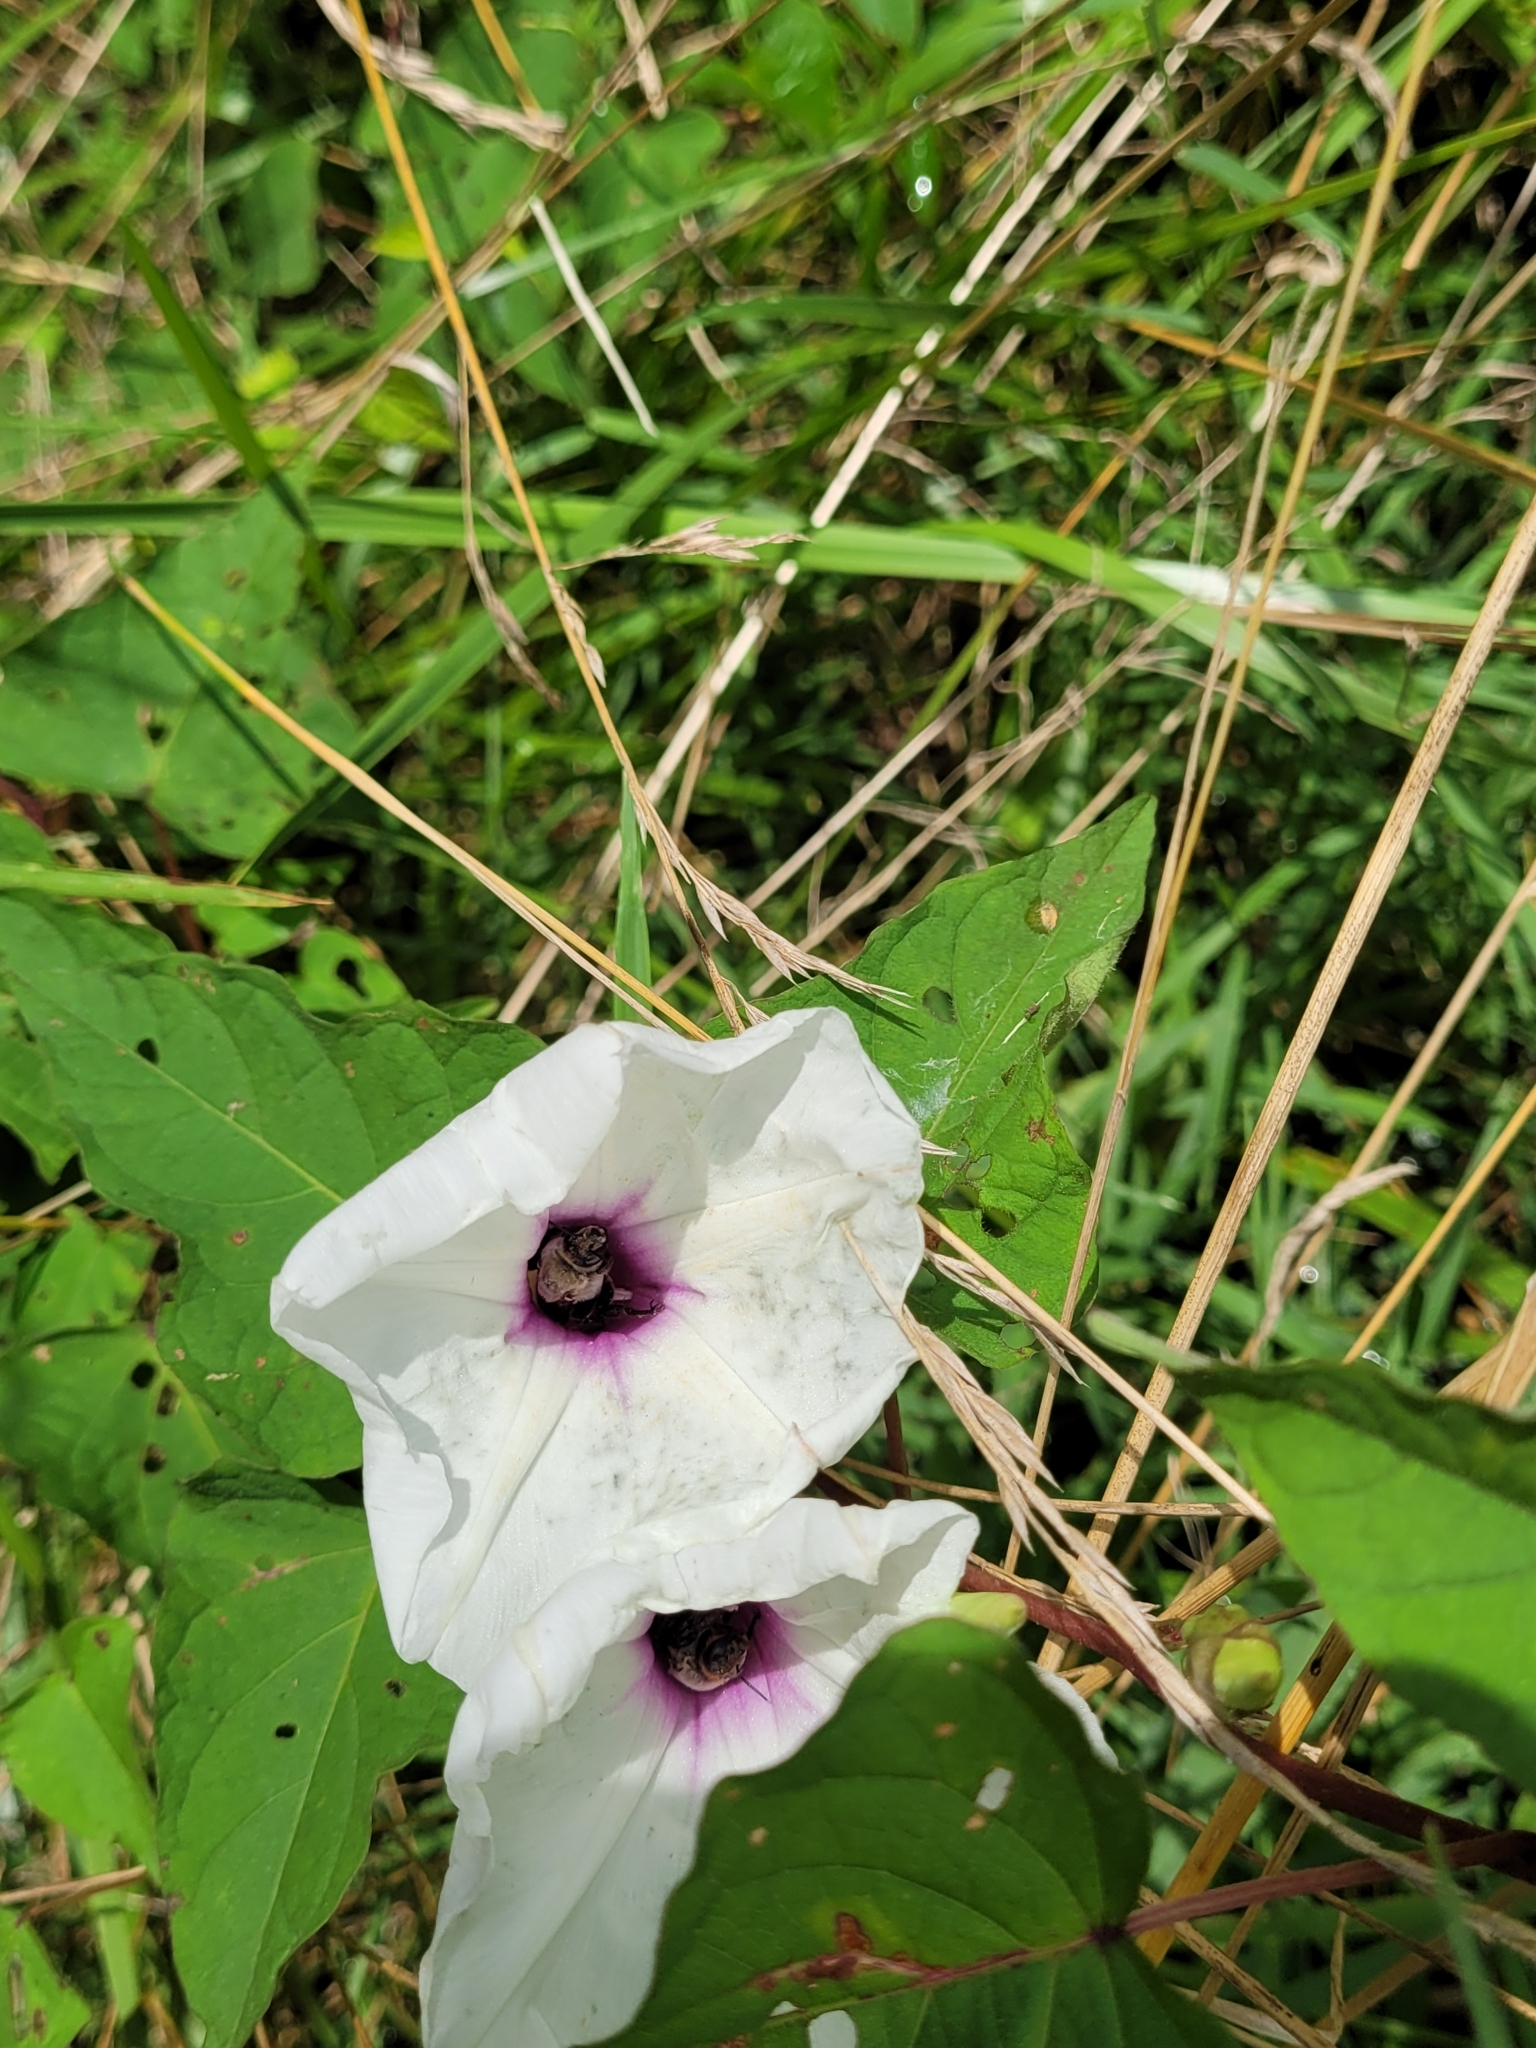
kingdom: Plantae
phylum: Tracheophyta
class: Magnoliopsida
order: Solanales
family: Convolvulaceae
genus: Ipomoea
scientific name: Ipomoea pandurata
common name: Man-of-the-earth
